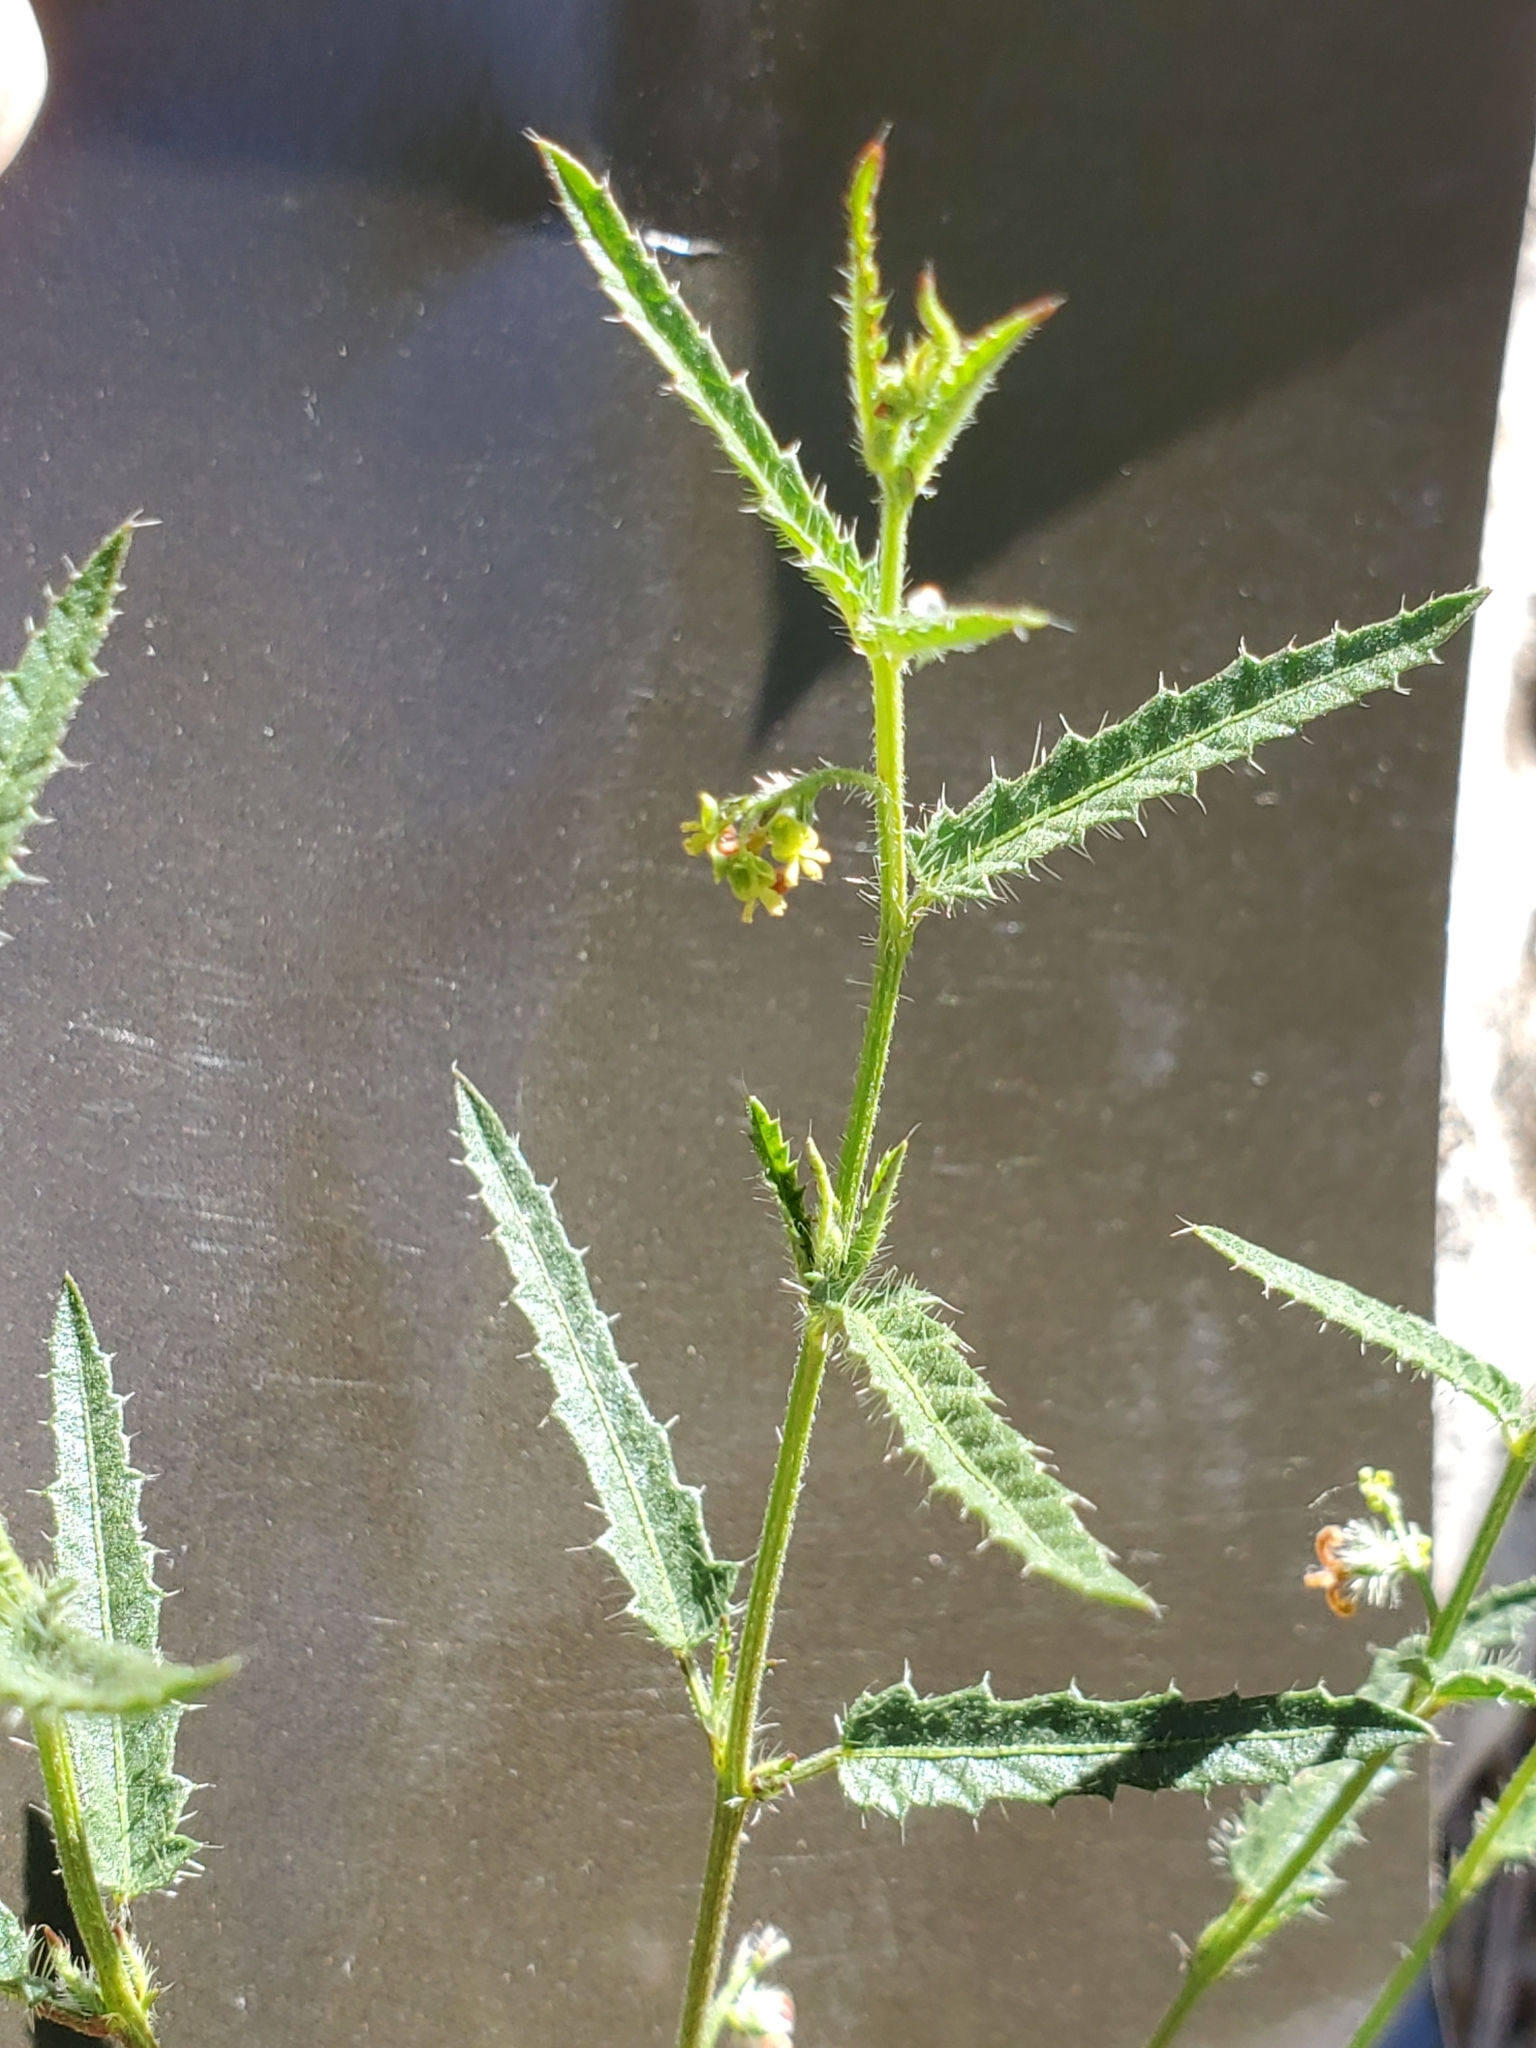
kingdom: Plantae
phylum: Tracheophyta
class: Magnoliopsida
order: Malpighiales
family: Euphorbiaceae
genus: Tragia
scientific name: Tragia ramosa
